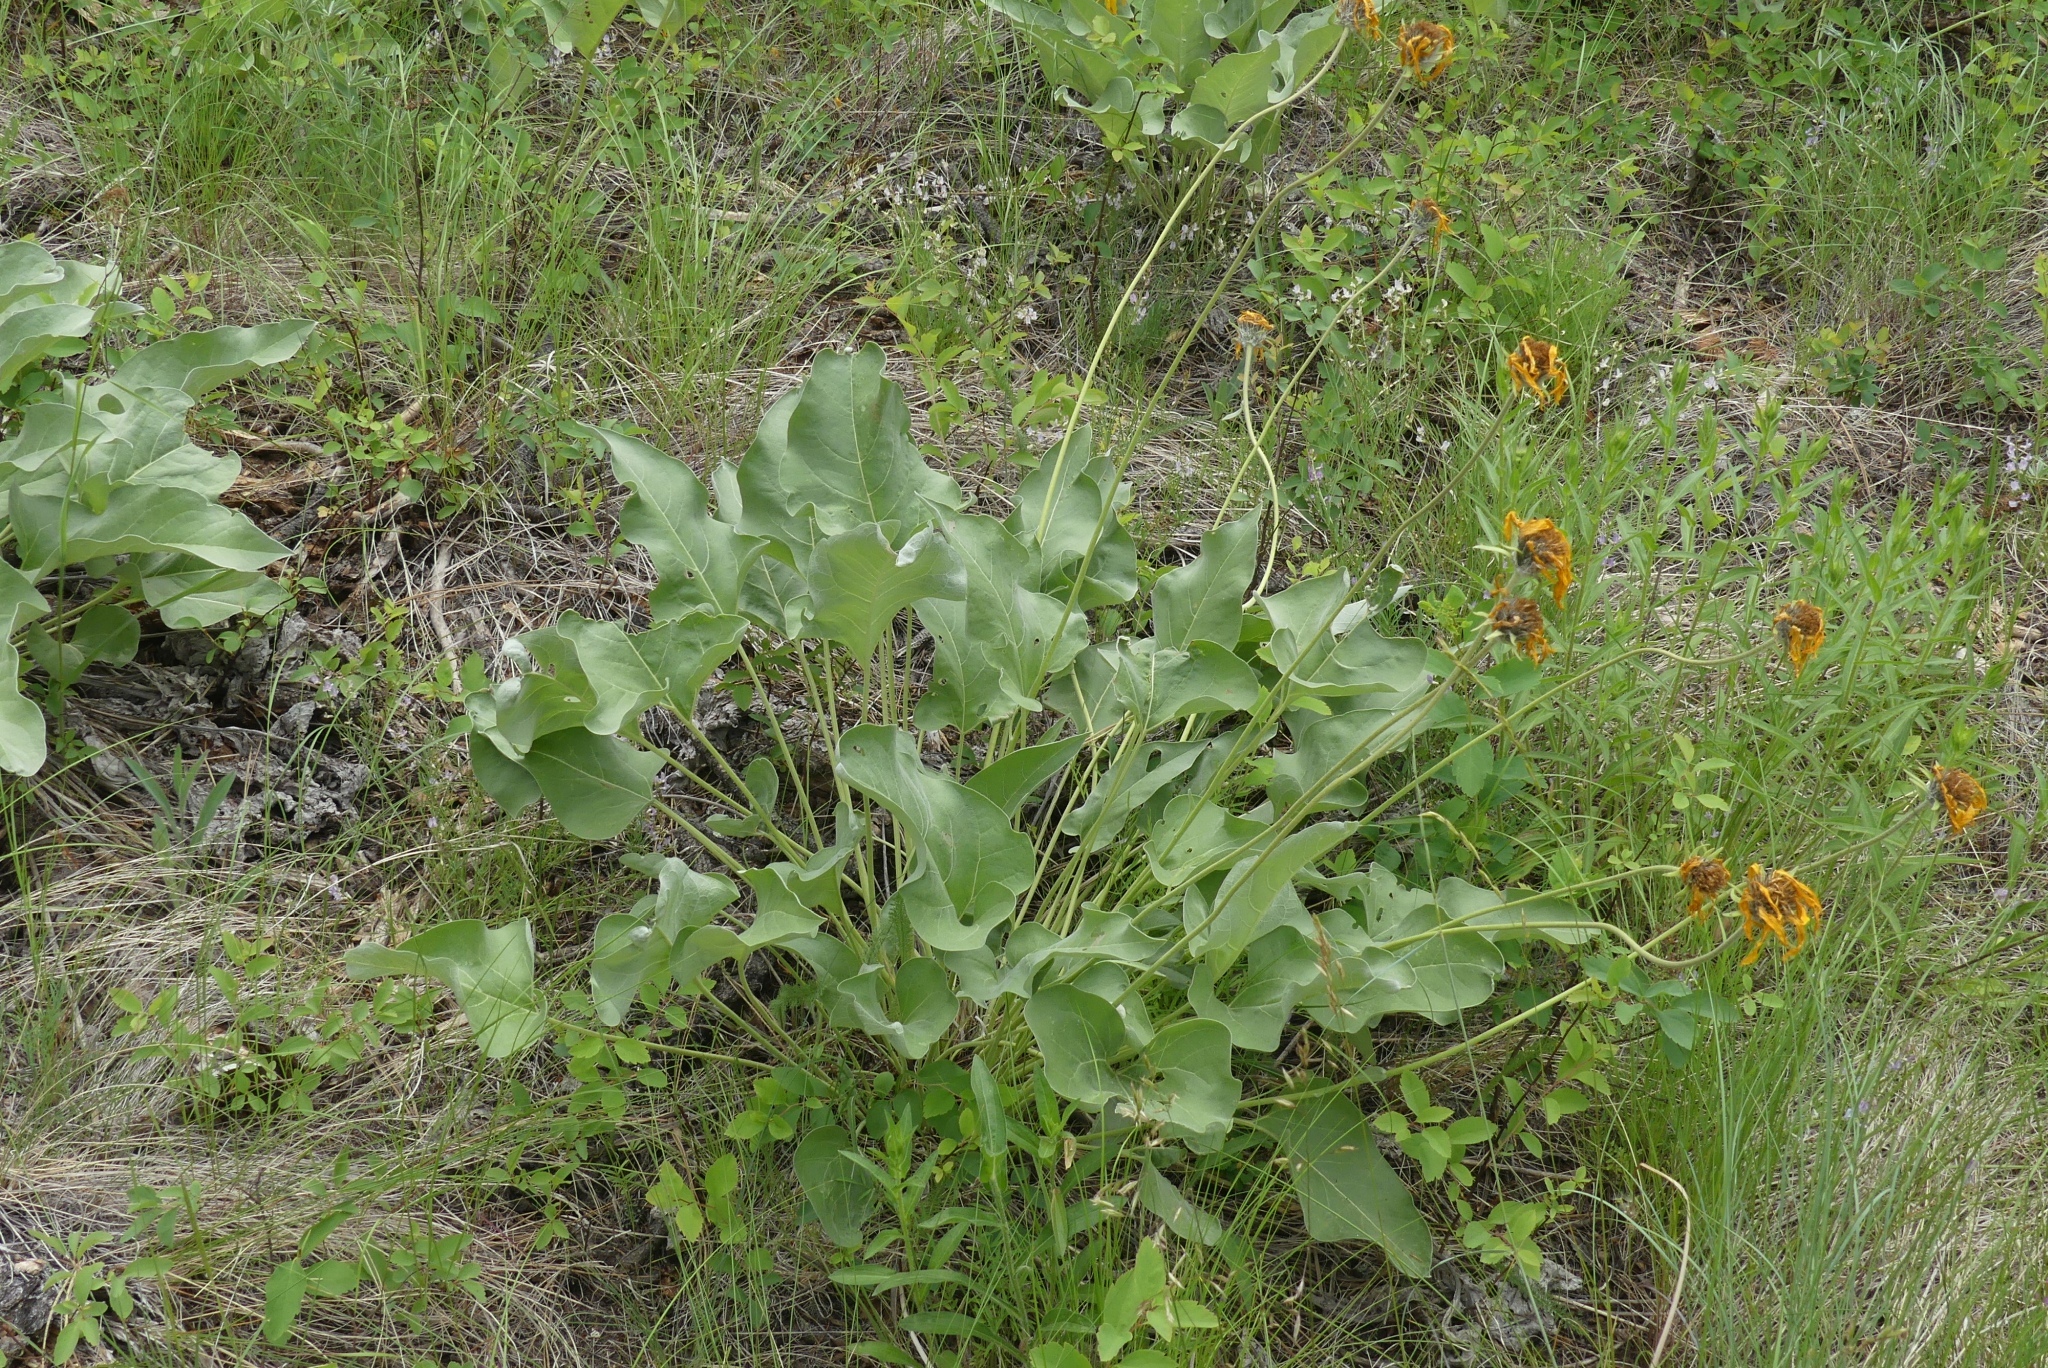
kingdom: Plantae
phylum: Tracheophyta
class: Magnoliopsida
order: Asterales
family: Asteraceae
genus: Wyethia
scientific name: Wyethia sagittata
